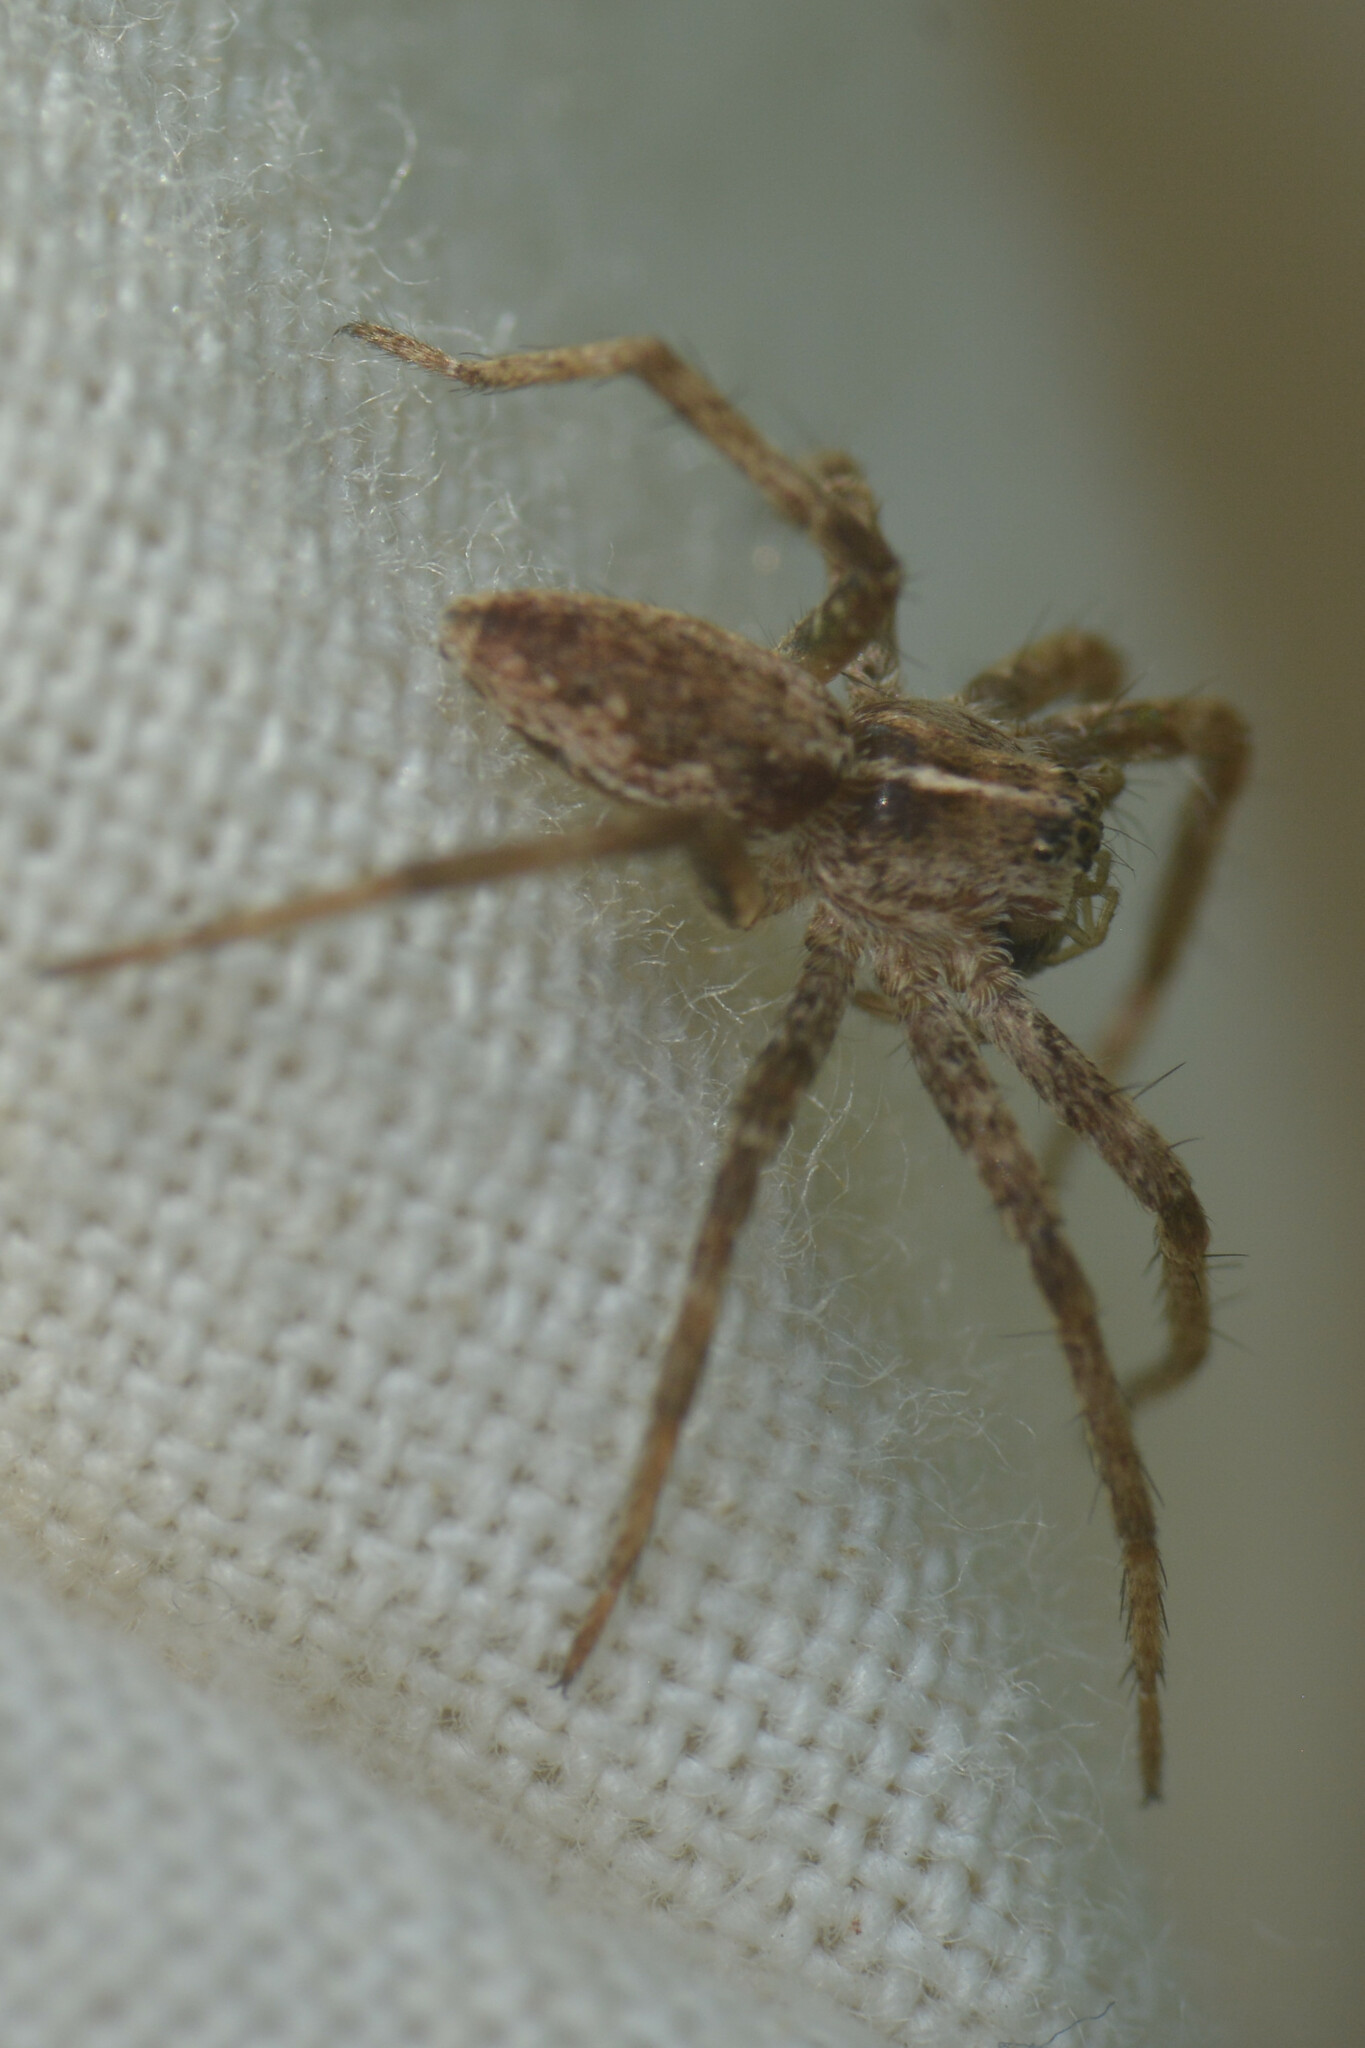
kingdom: Animalia
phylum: Arthropoda
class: Arachnida
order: Araneae
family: Pisauridae
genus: Pisaura
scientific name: Pisaura mirabilis
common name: Tent spider
